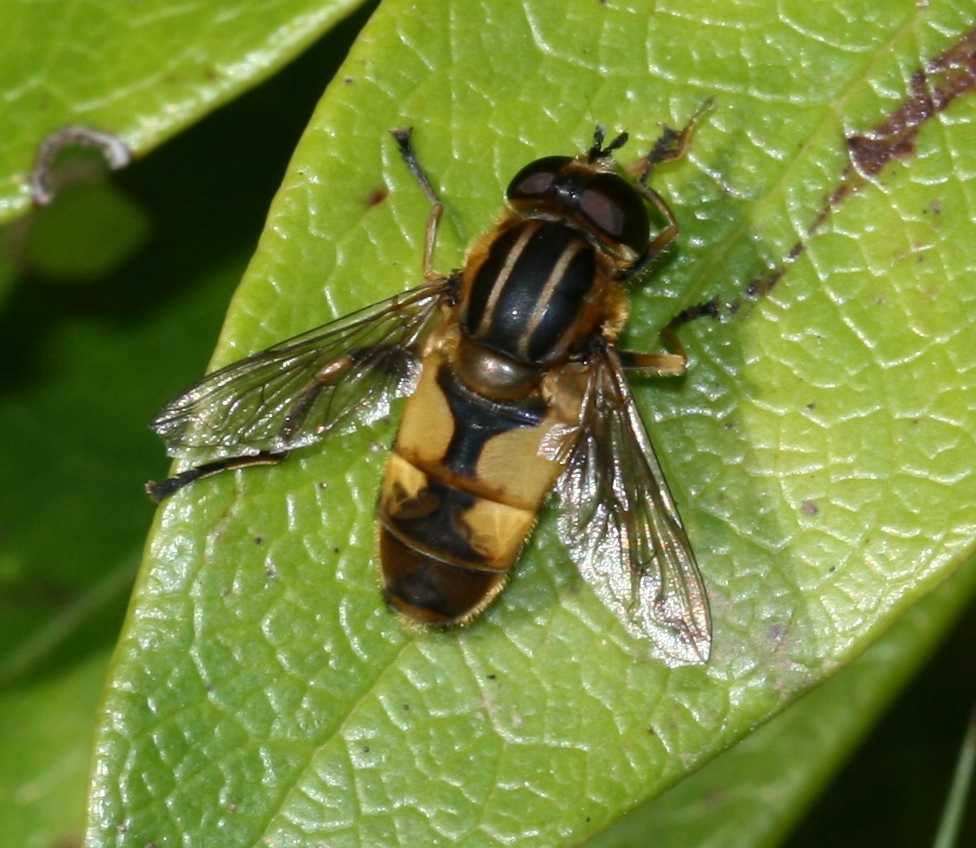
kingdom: Animalia
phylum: Arthropoda
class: Insecta
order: Diptera
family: Syrphidae
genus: Helophilus
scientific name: Helophilus hybridus
